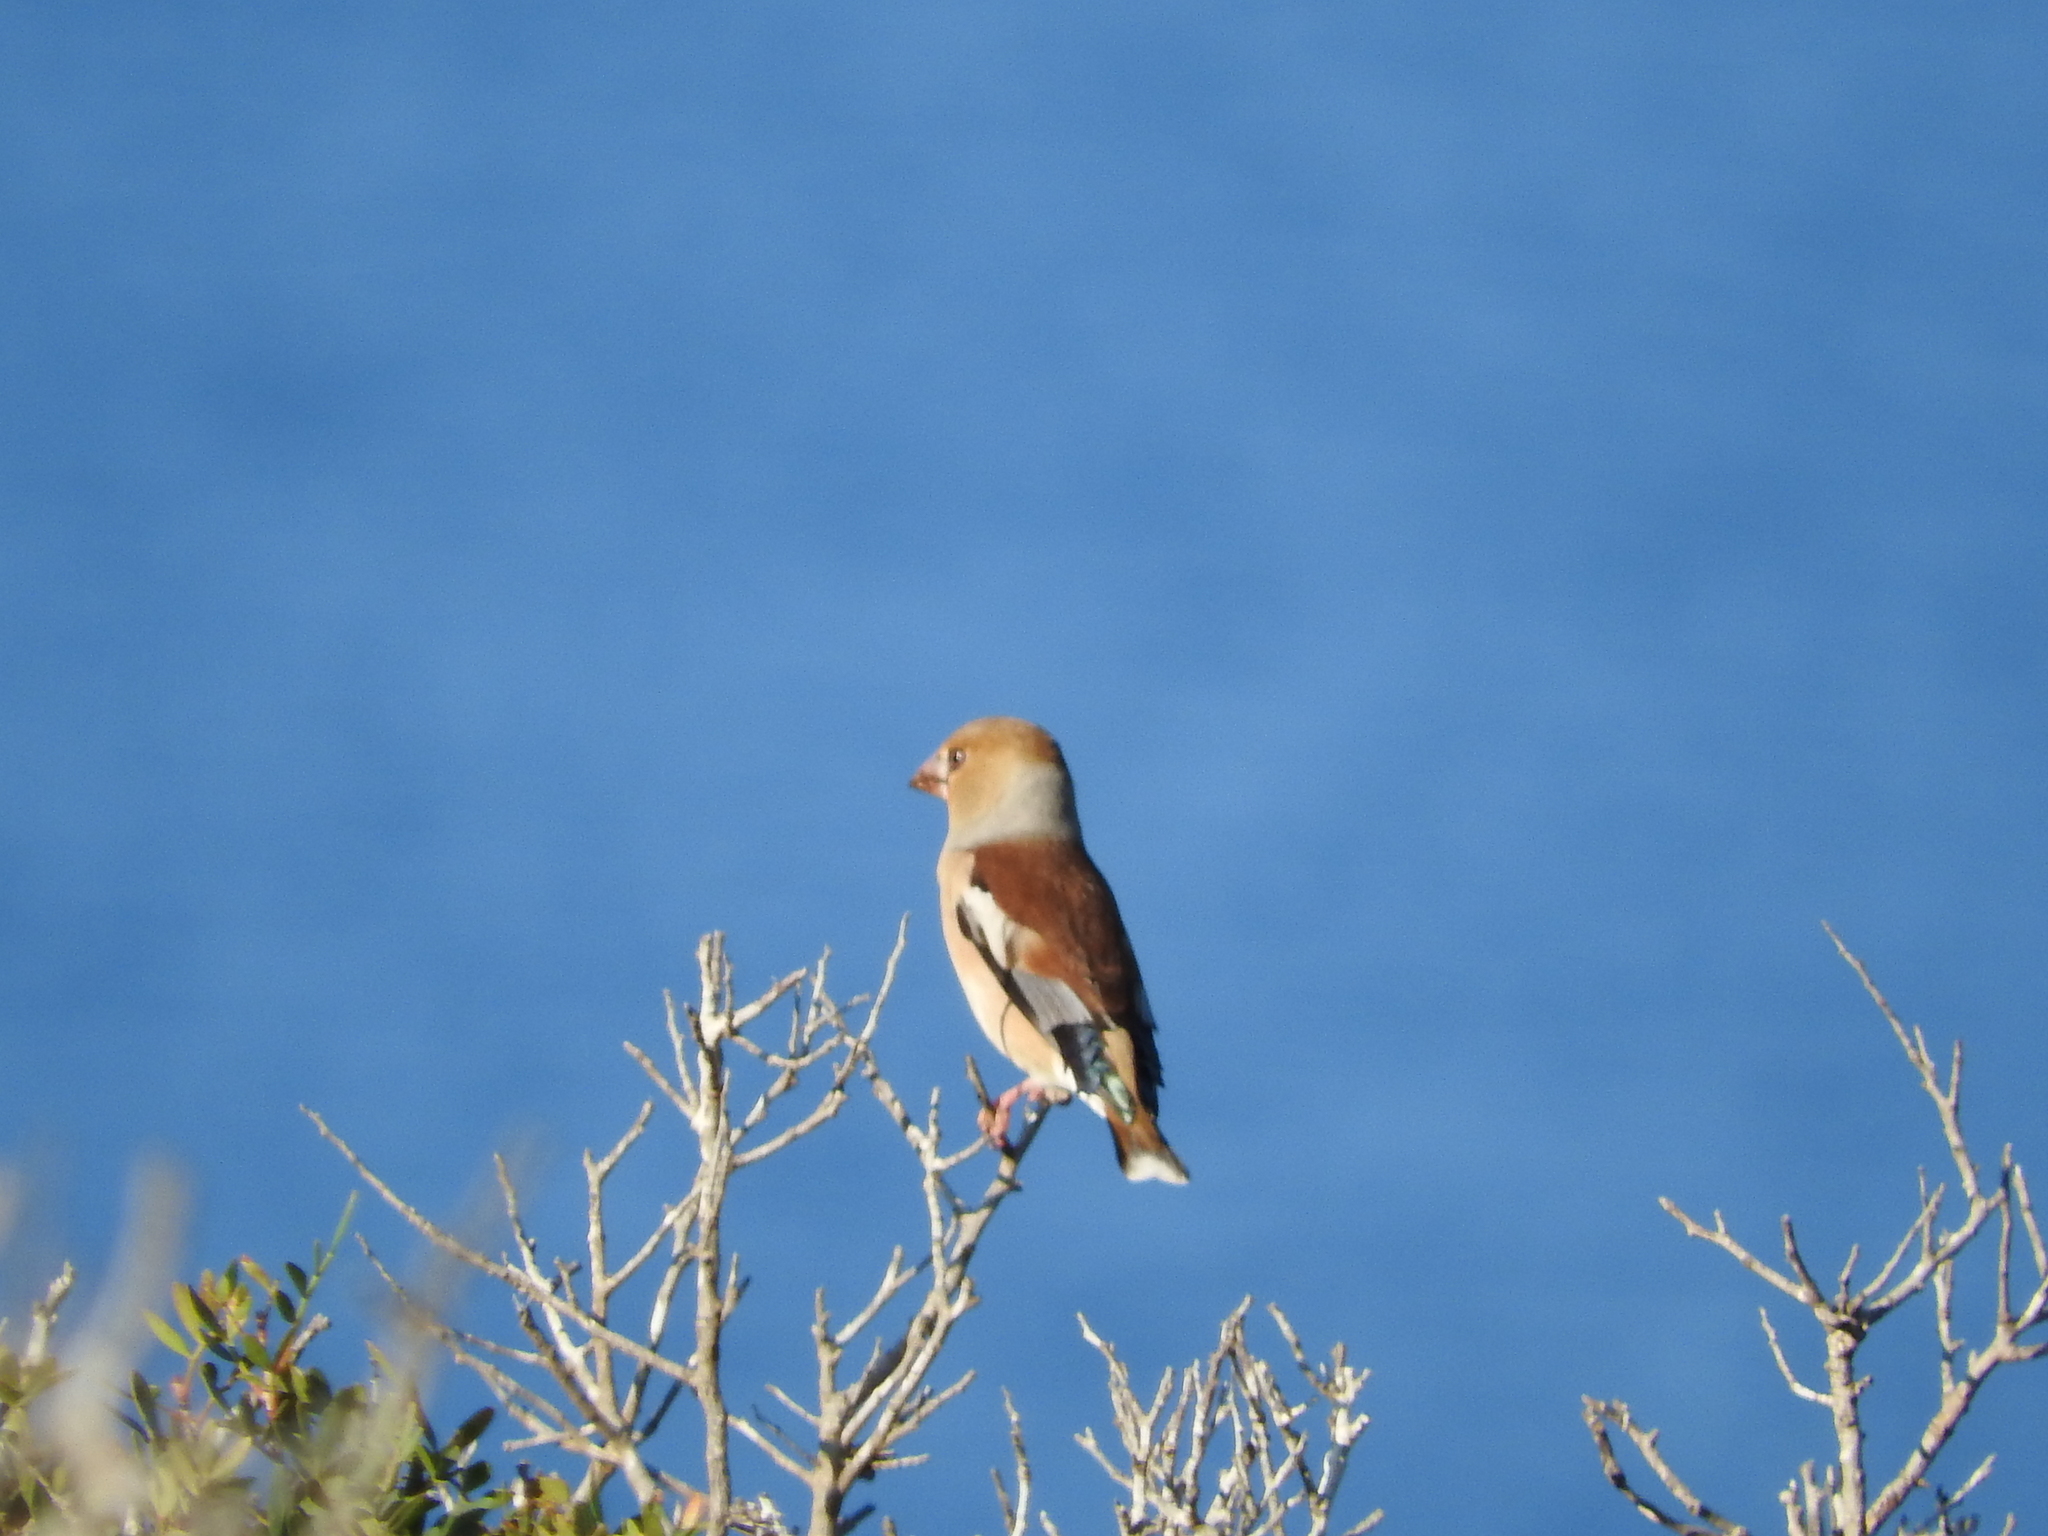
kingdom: Animalia
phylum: Chordata
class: Aves
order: Passeriformes
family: Fringillidae
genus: Coccothraustes
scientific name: Coccothraustes coccothraustes
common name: Hawfinch
